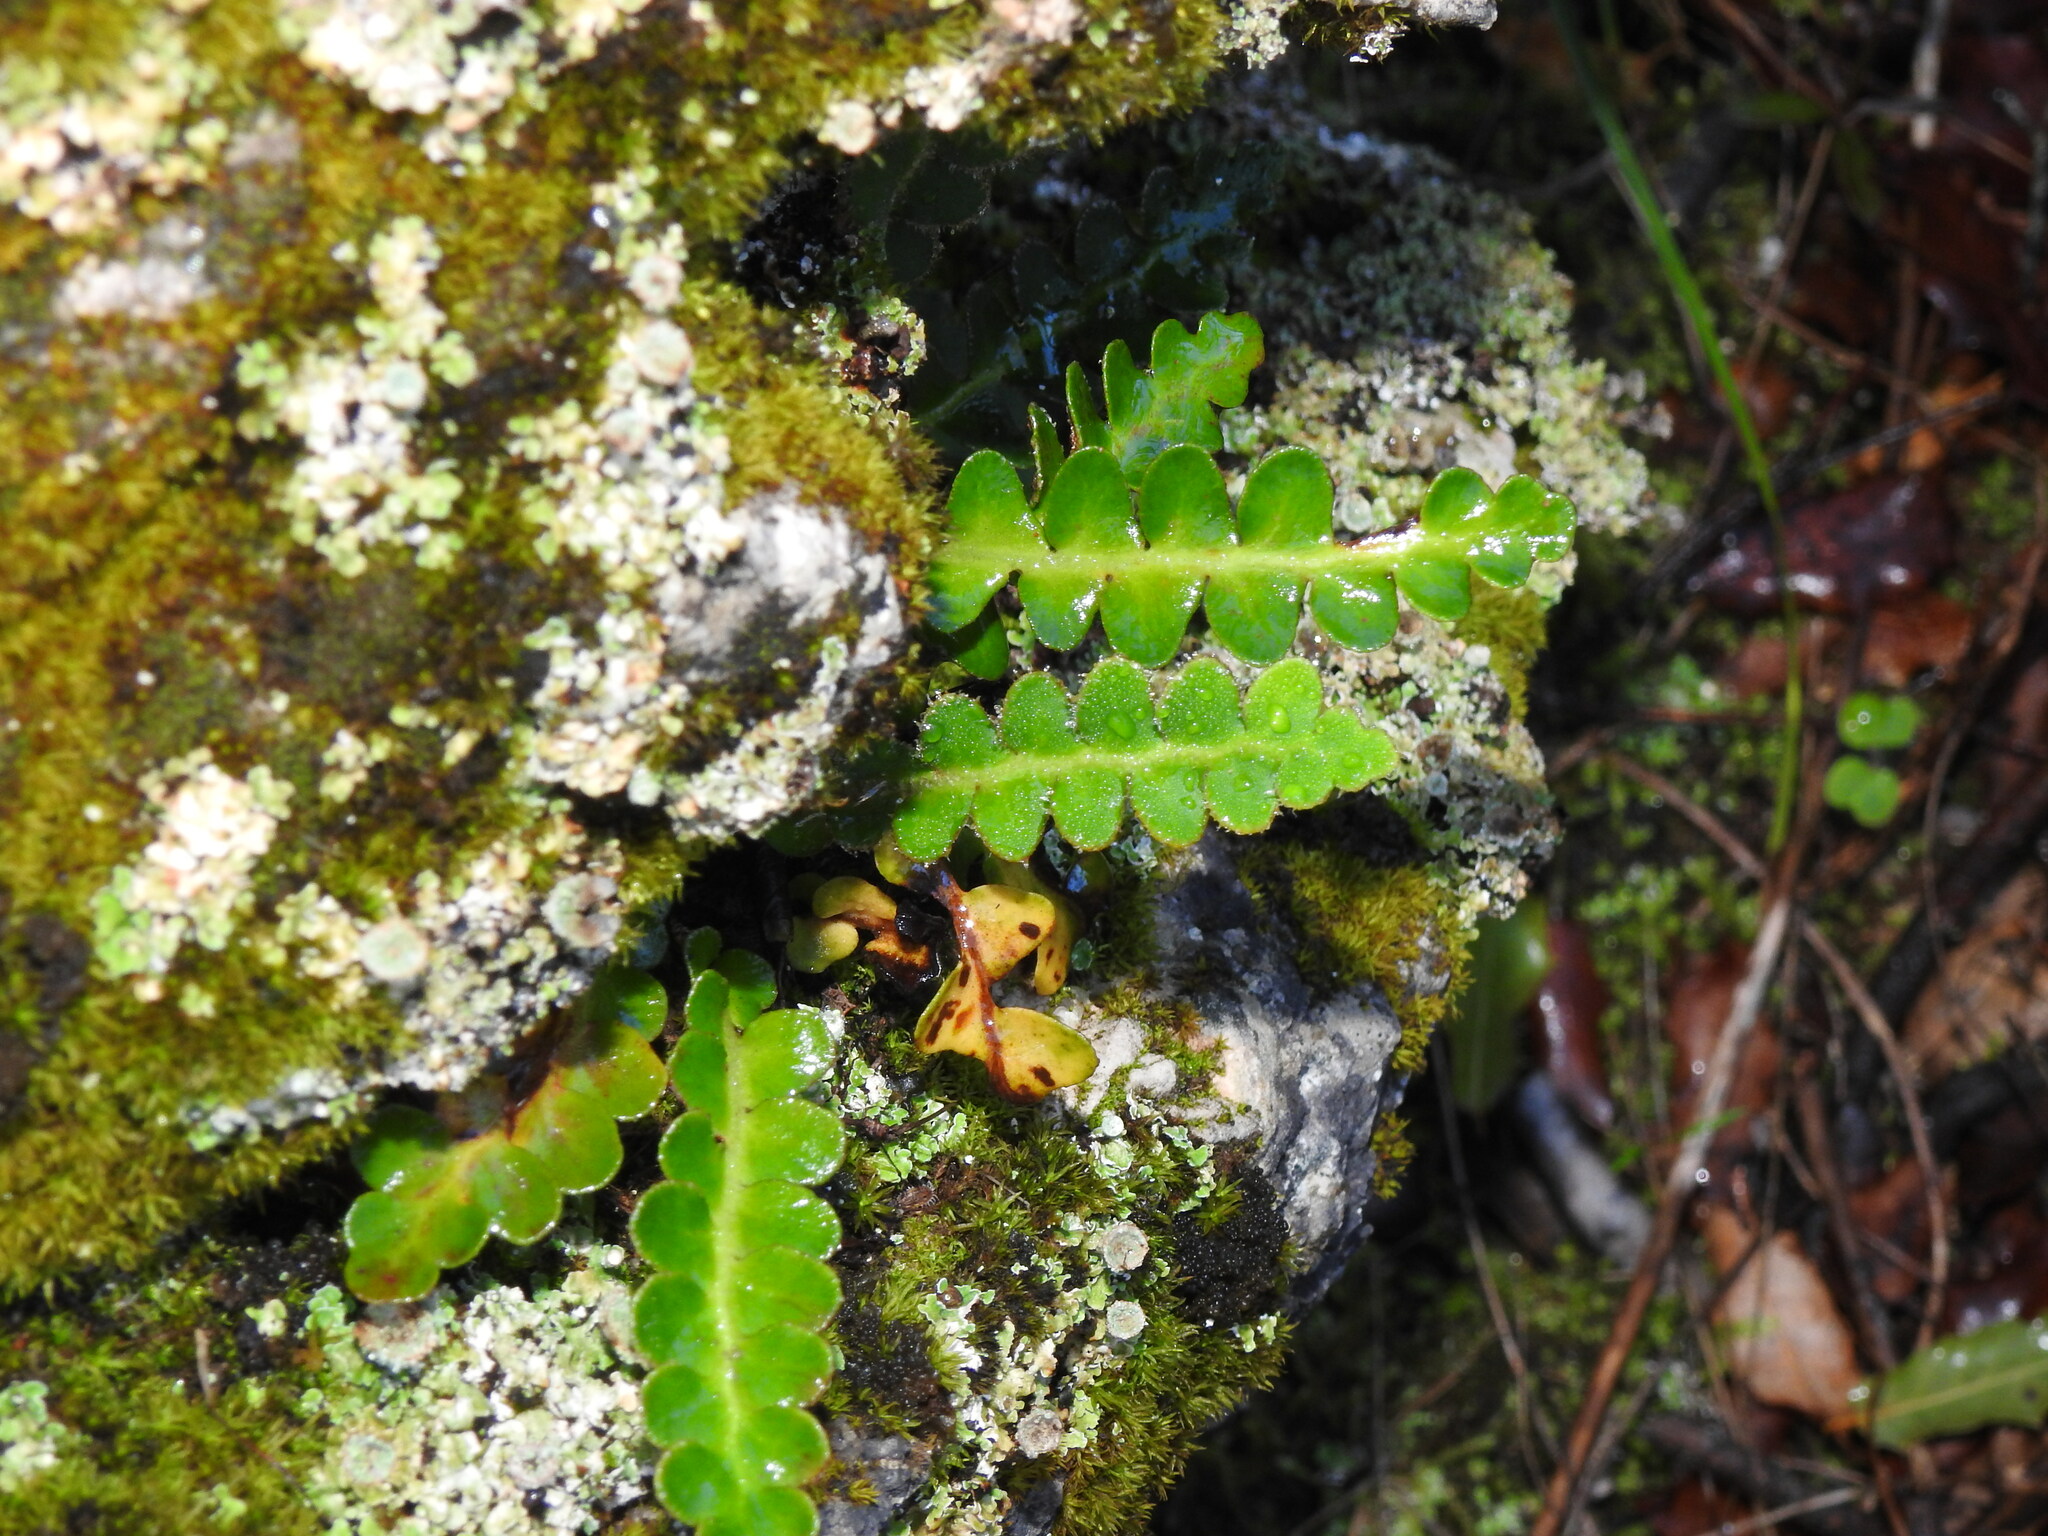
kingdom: Plantae
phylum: Tracheophyta
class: Polypodiopsida
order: Polypodiales
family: Aspleniaceae
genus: Asplenium
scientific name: Asplenium ceterach
